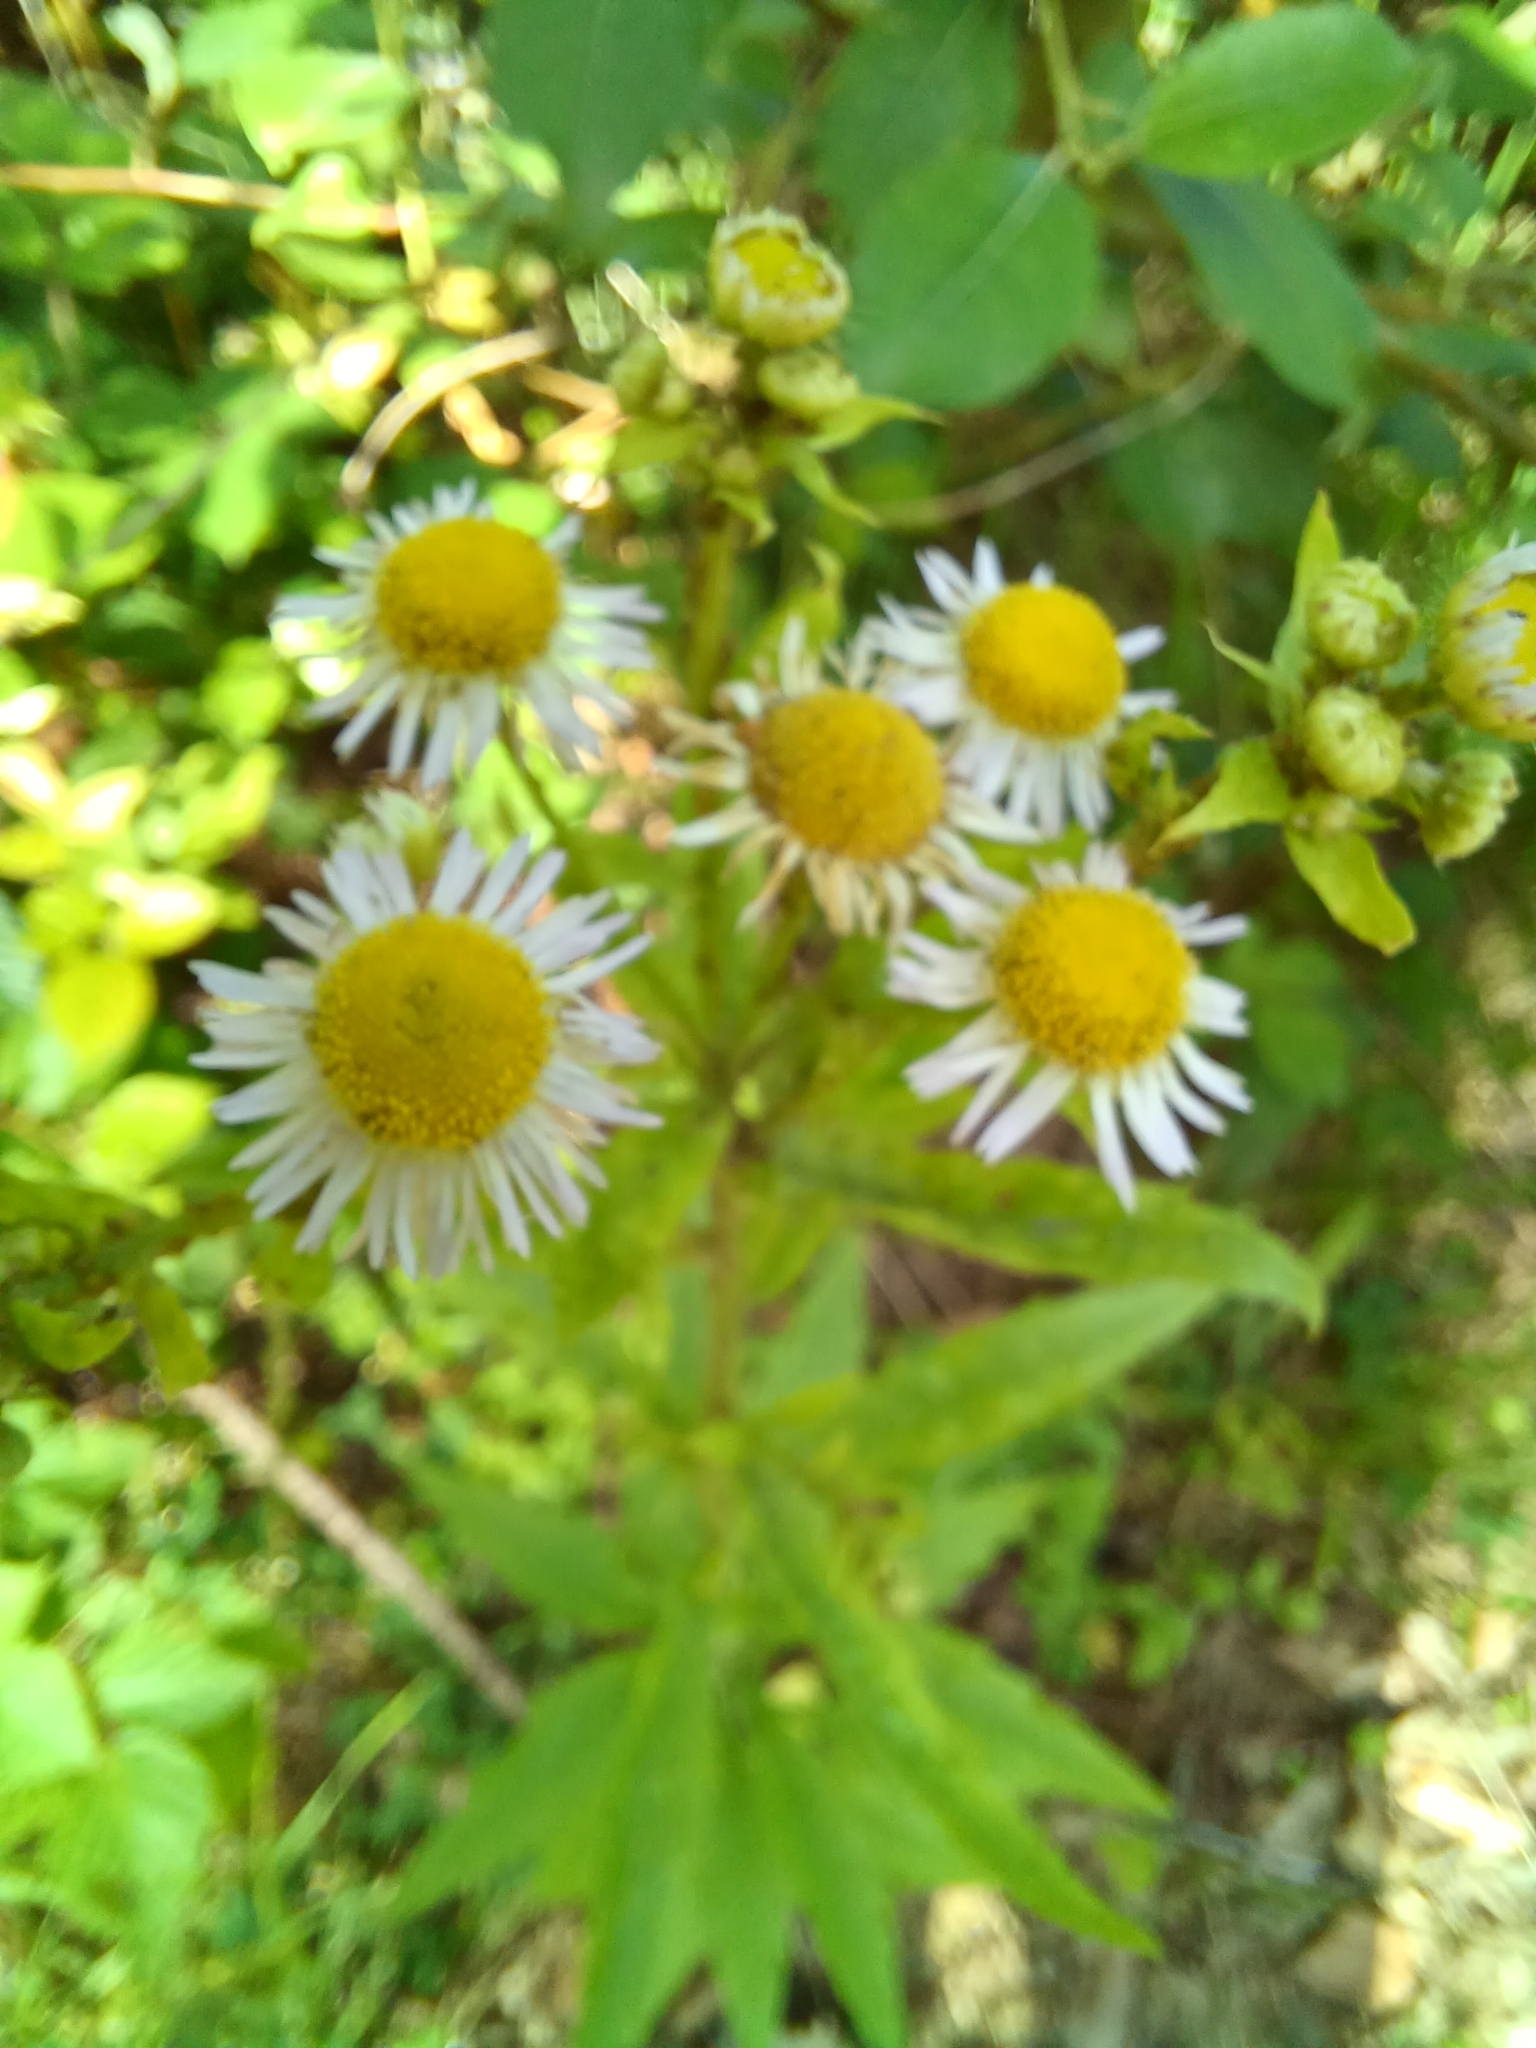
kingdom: Plantae
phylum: Tracheophyta
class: Magnoliopsida
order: Asterales
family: Asteraceae
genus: Erigeron
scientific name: Erigeron annuus
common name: Tall fleabane
